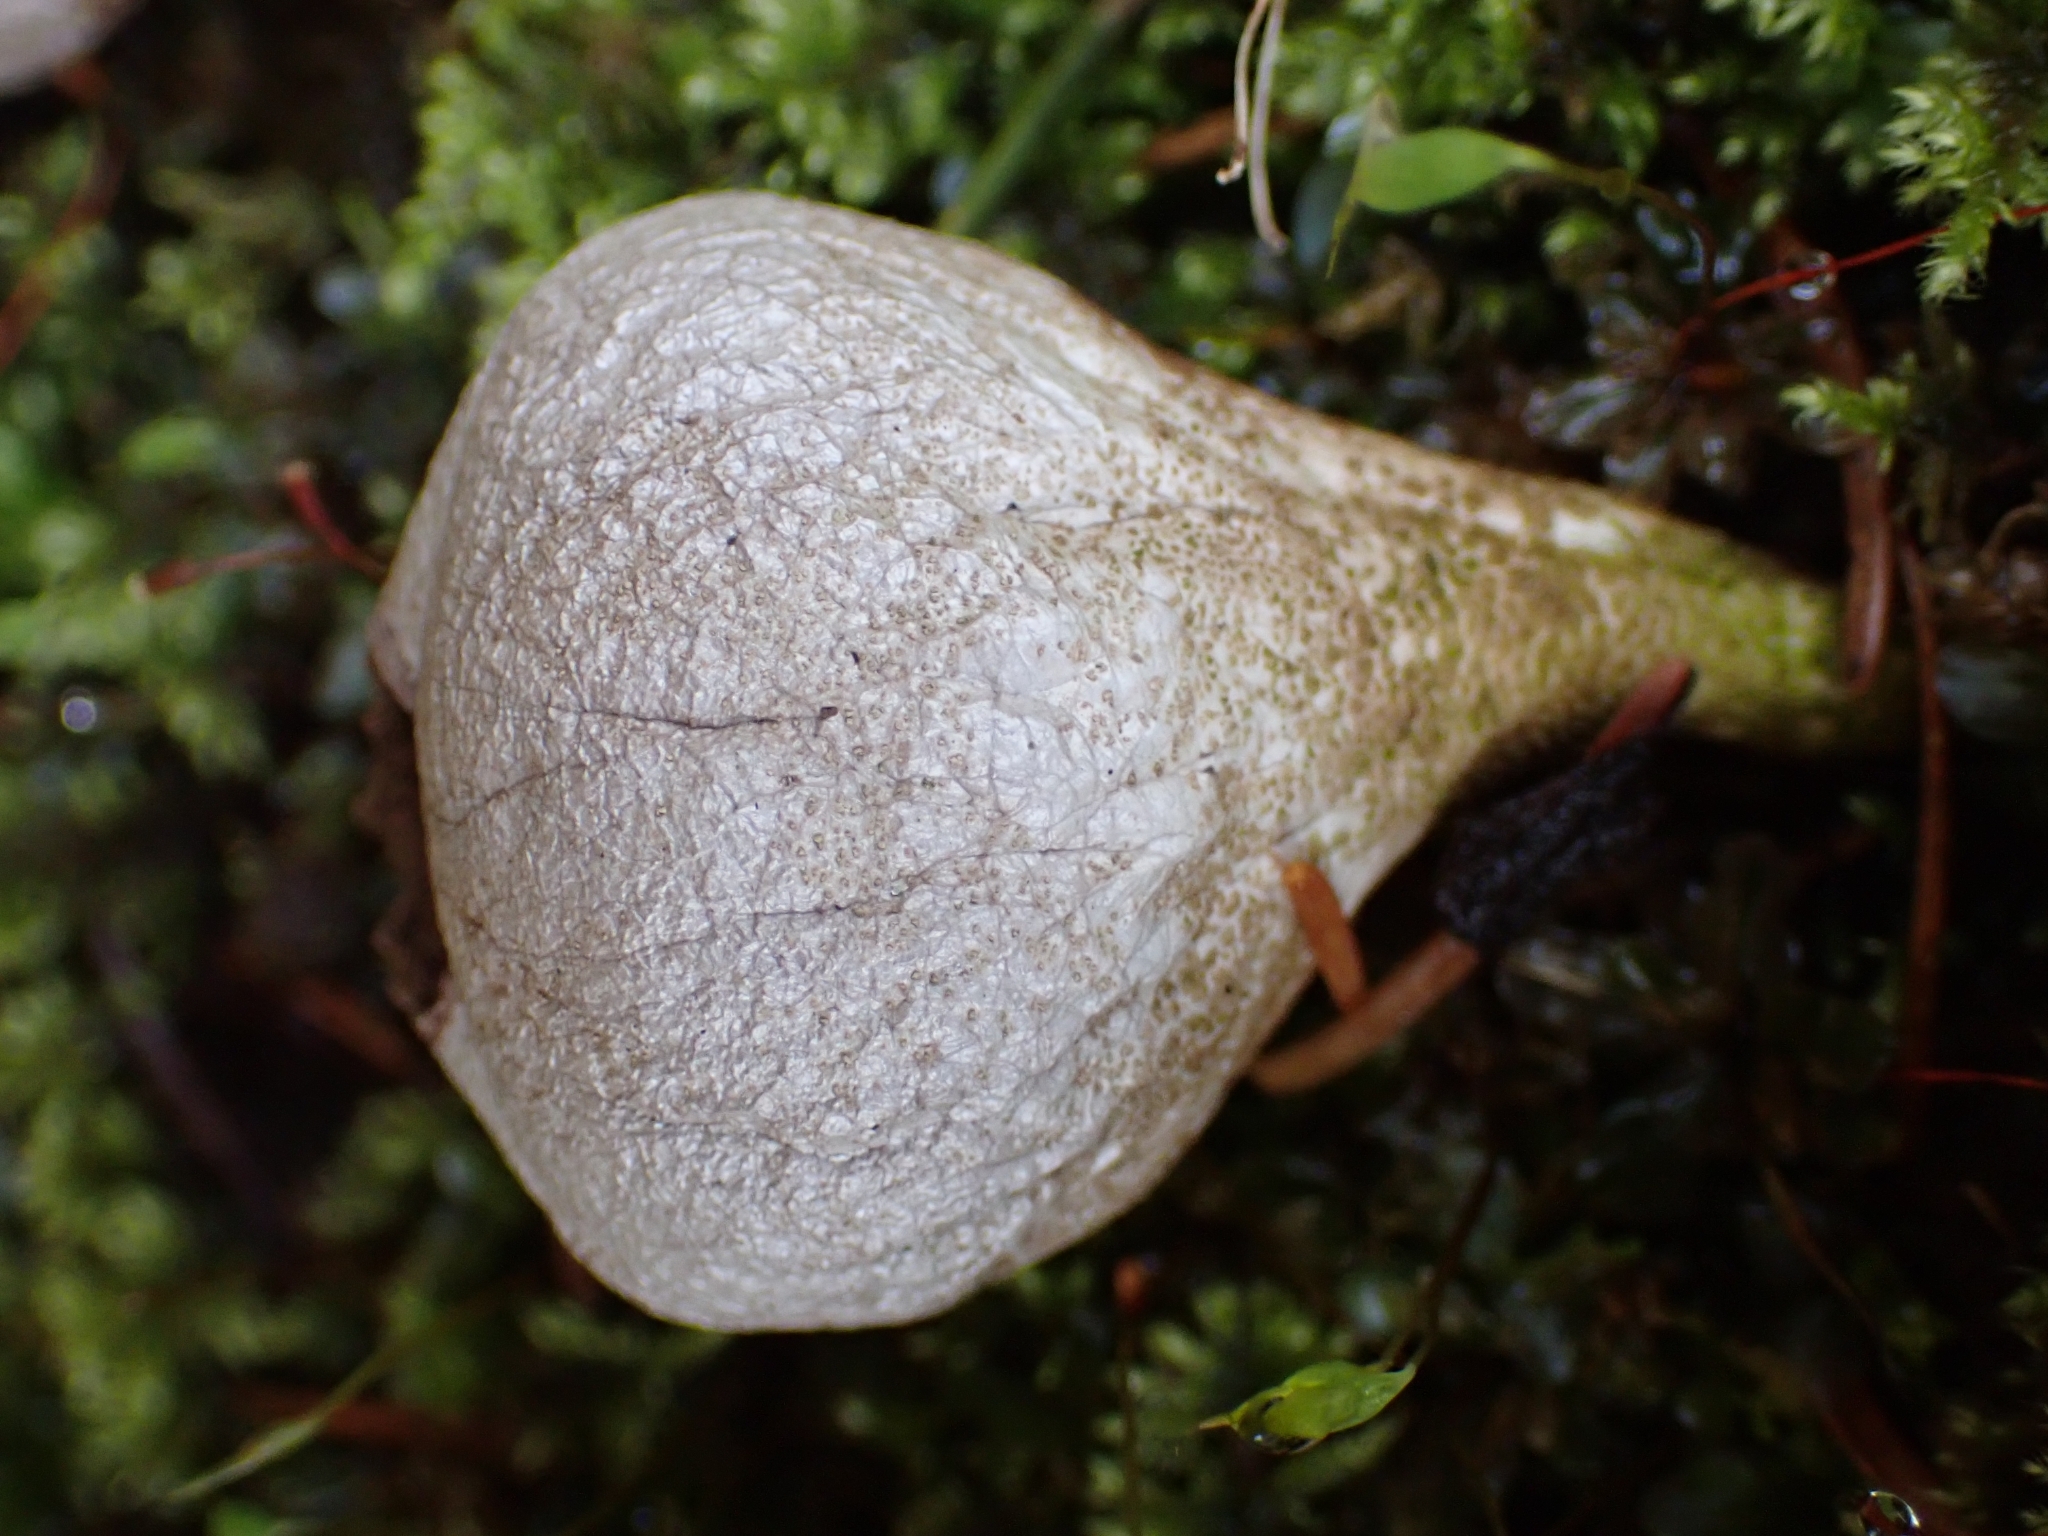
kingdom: Fungi
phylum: Basidiomycota
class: Agaricomycetes
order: Agaricales
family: Lycoperdaceae
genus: Apioperdon
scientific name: Apioperdon pyriforme
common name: Pear-shaped puffball
